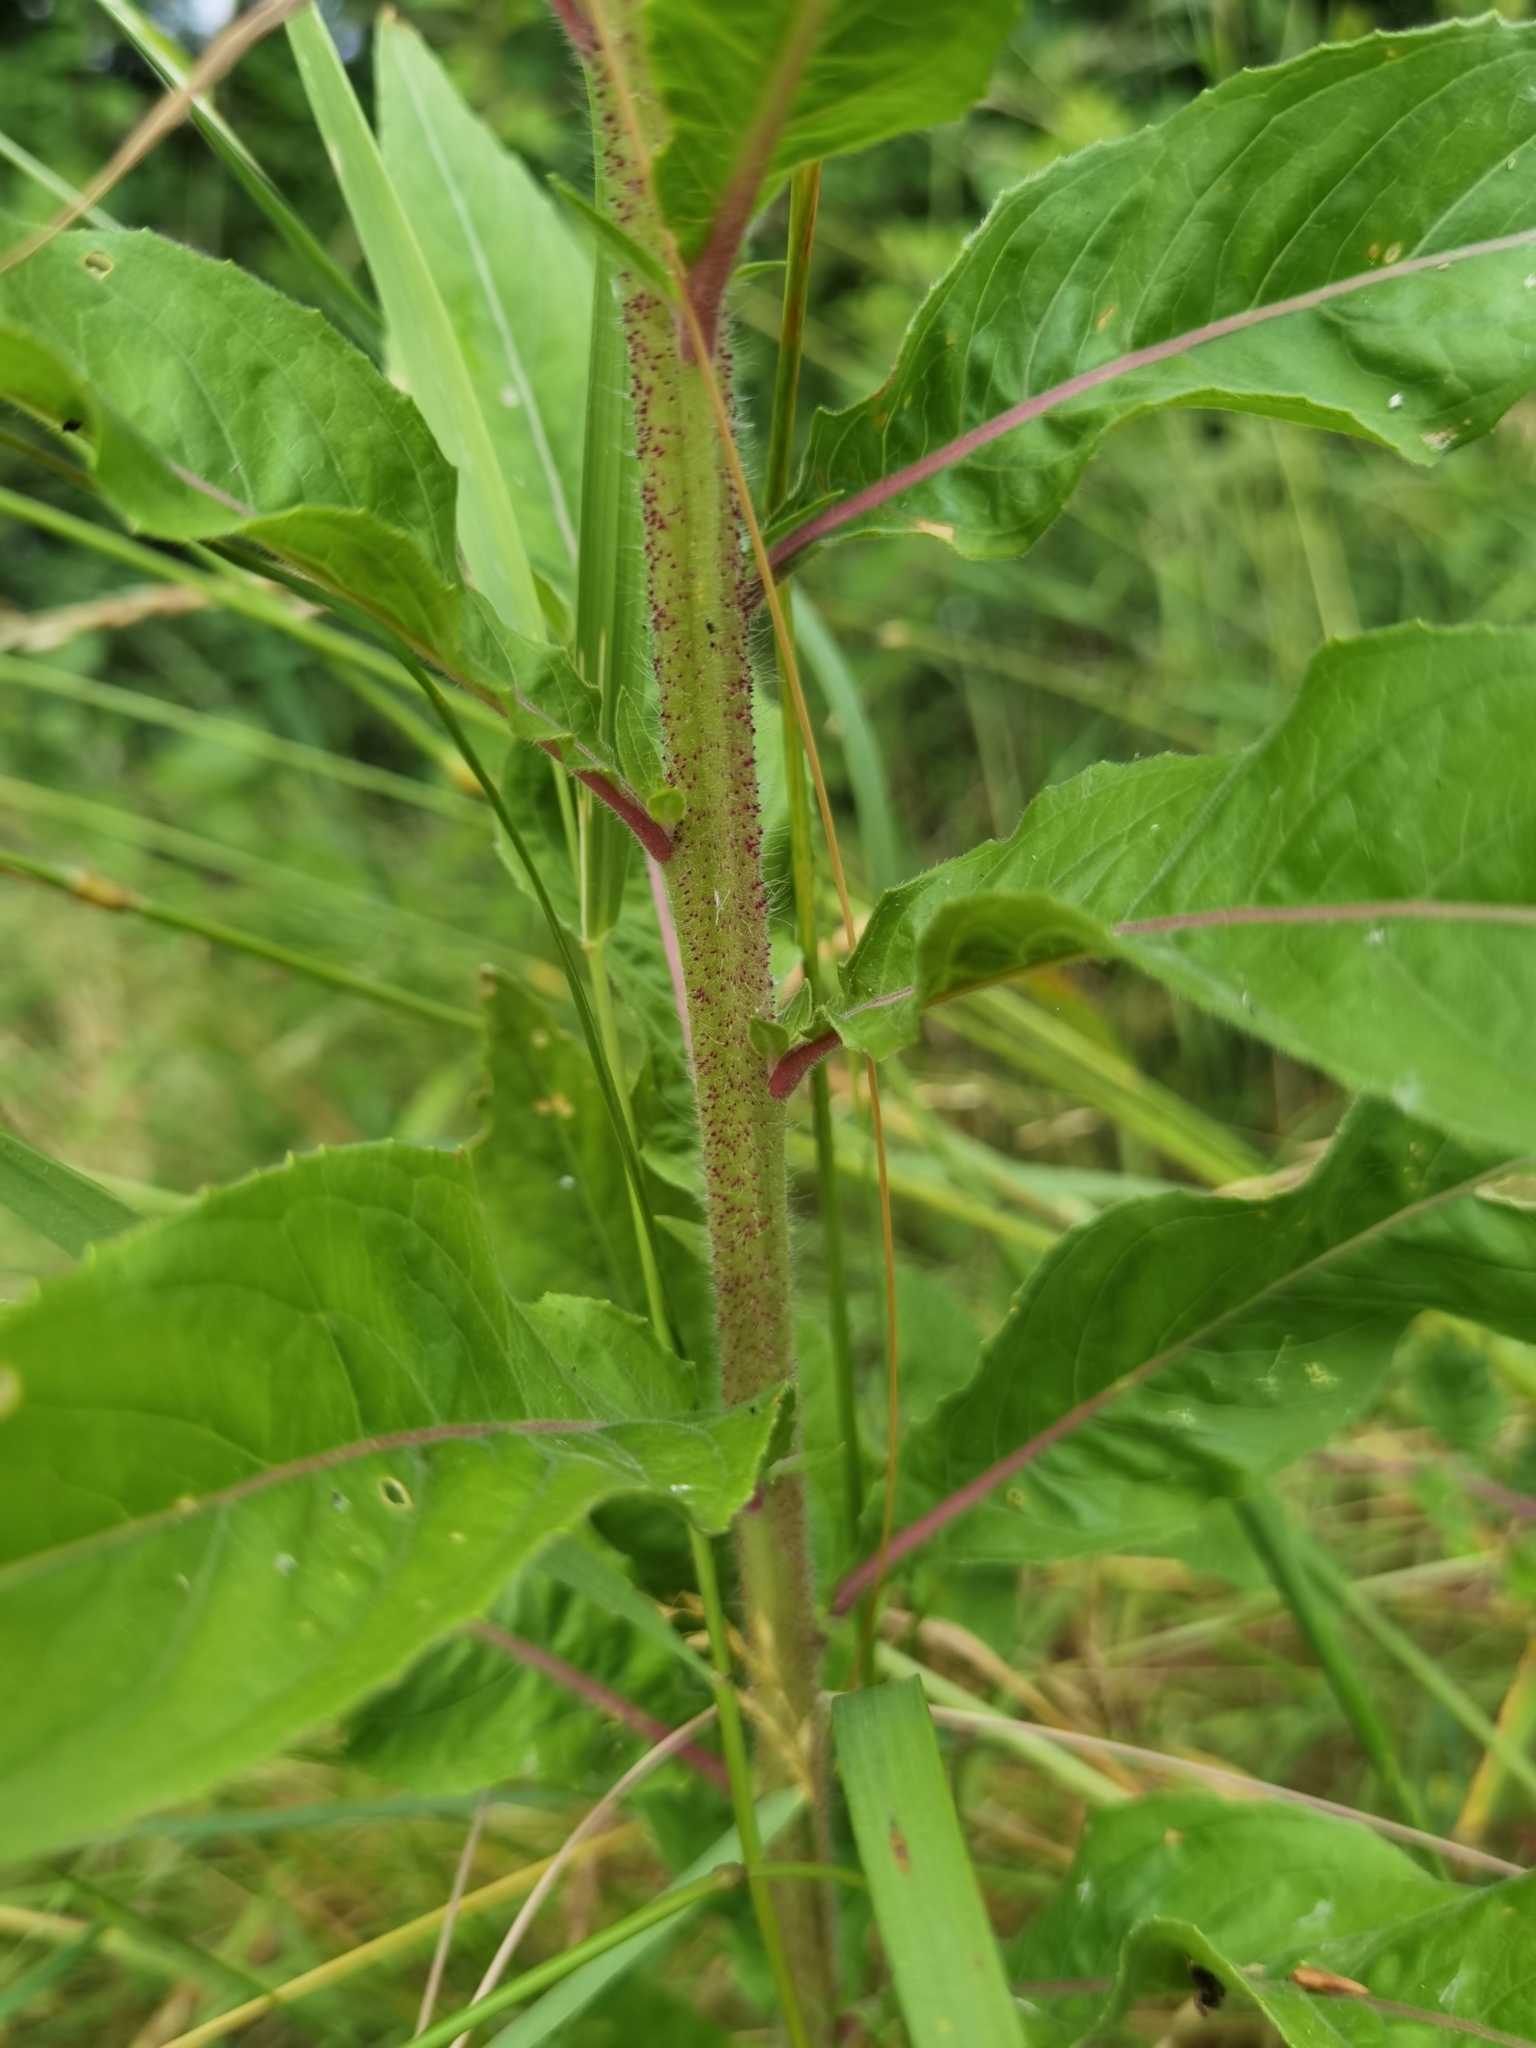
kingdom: Plantae
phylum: Tracheophyta
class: Magnoliopsida
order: Myrtales
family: Onagraceae
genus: Oenothera
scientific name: Oenothera glazioviana
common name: Large-flowered evening-primrose
